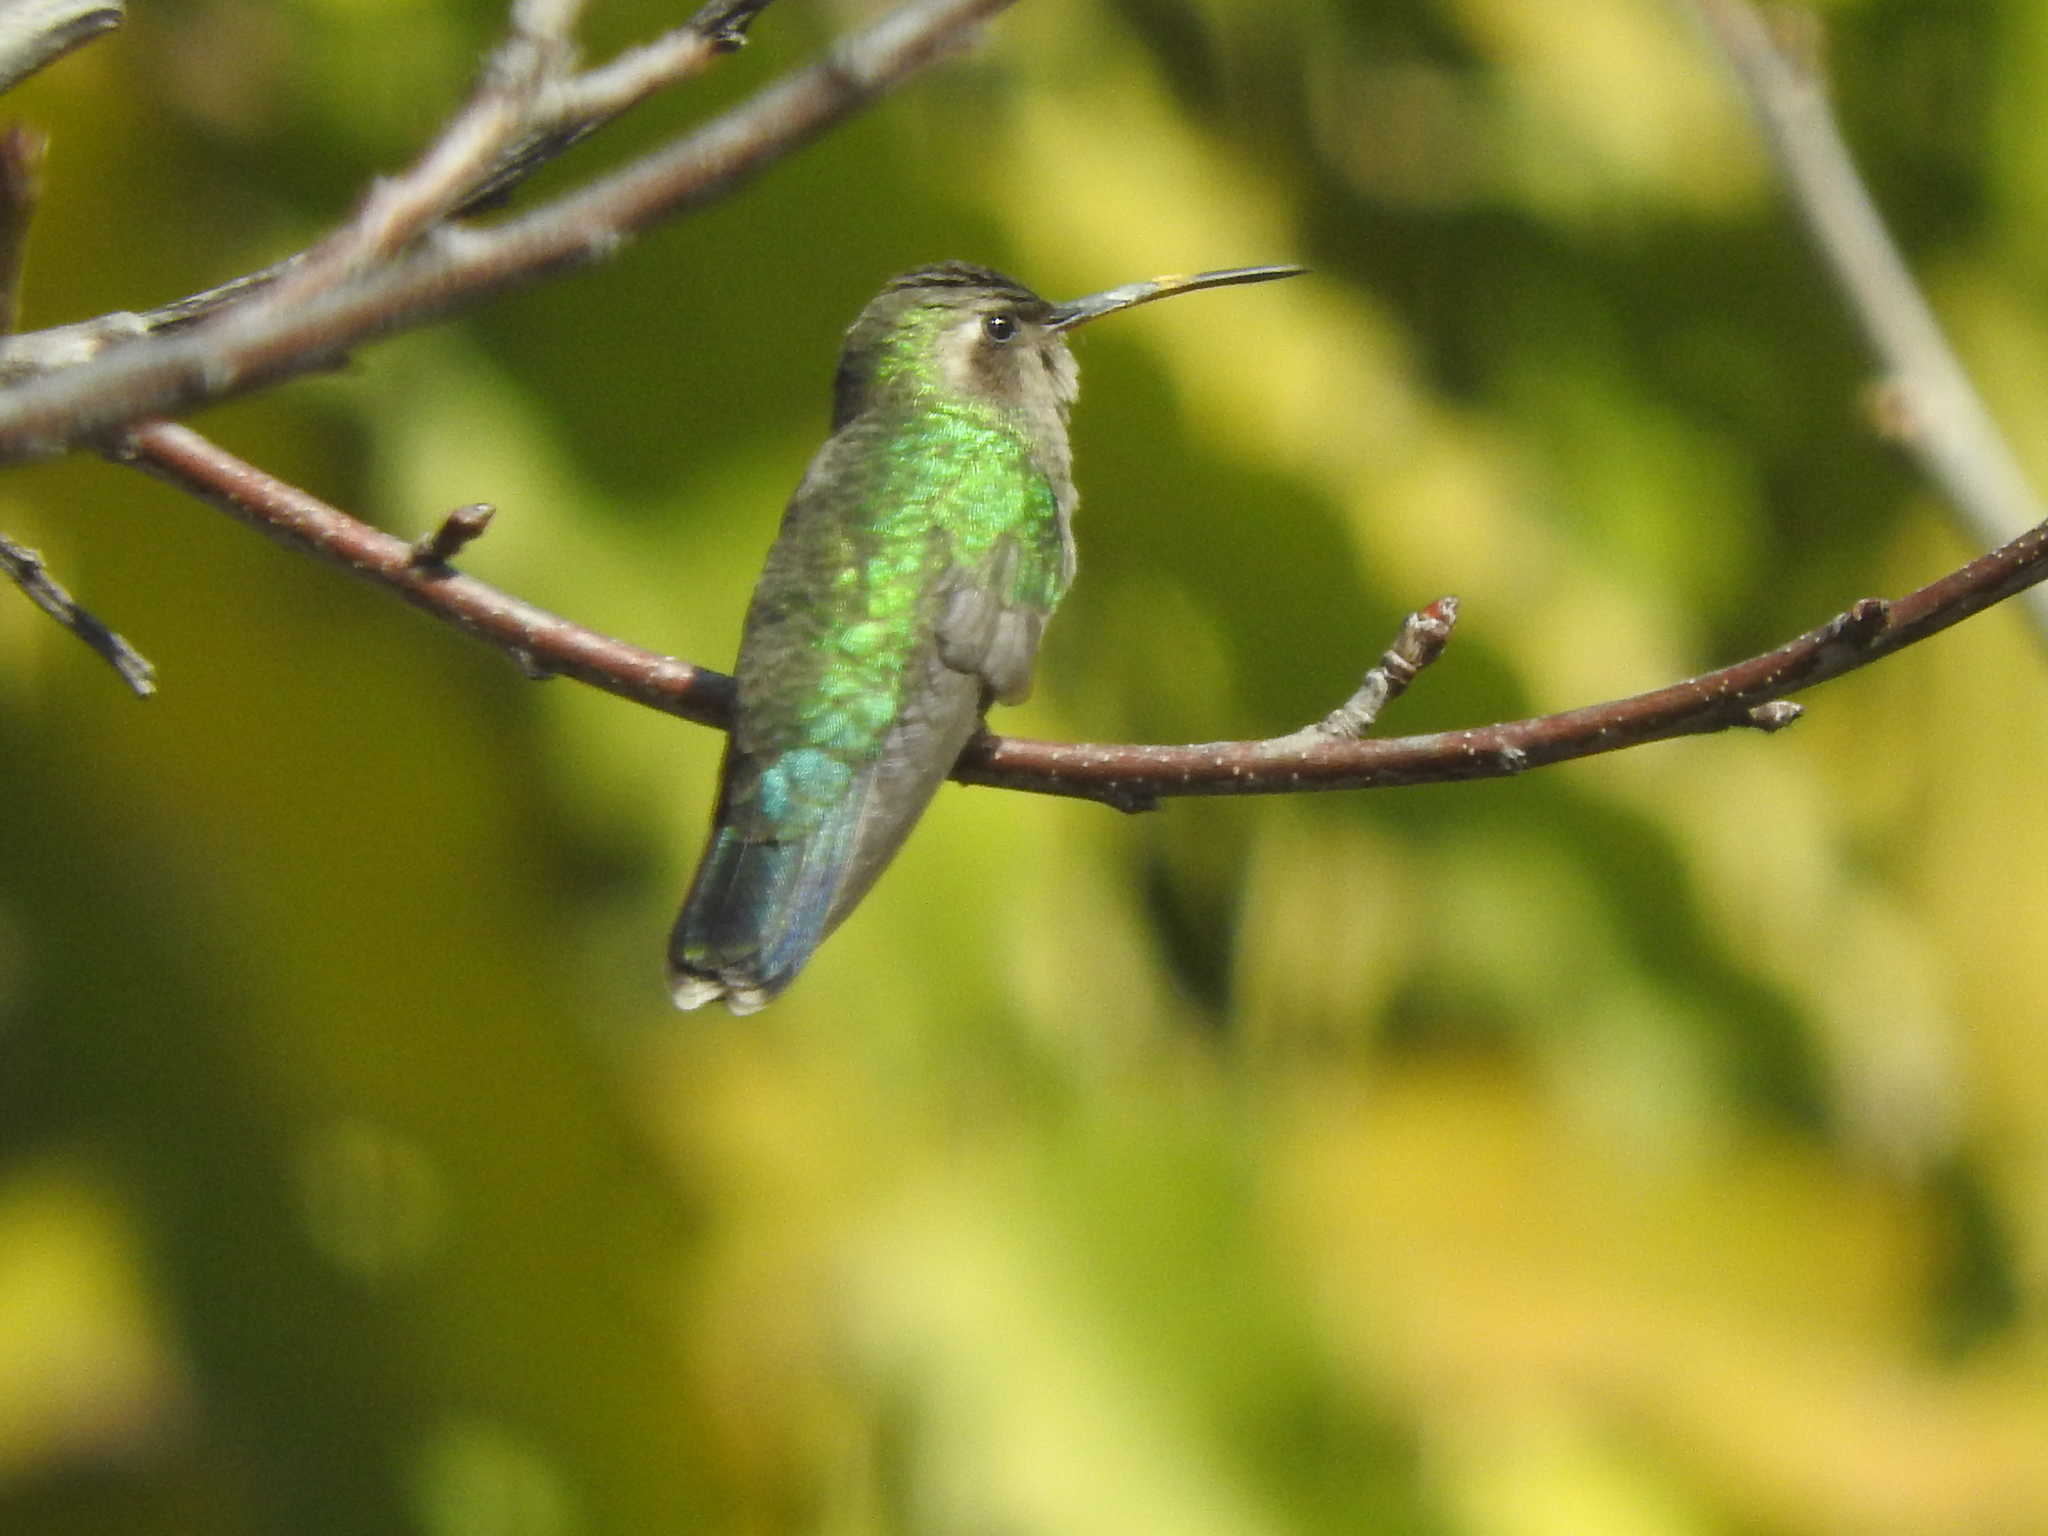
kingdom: Animalia
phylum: Chordata
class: Aves
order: Apodiformes
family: Trochilidae
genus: Cynanthus
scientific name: Cynanthus latirostris
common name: Broad-billed hummingbird
